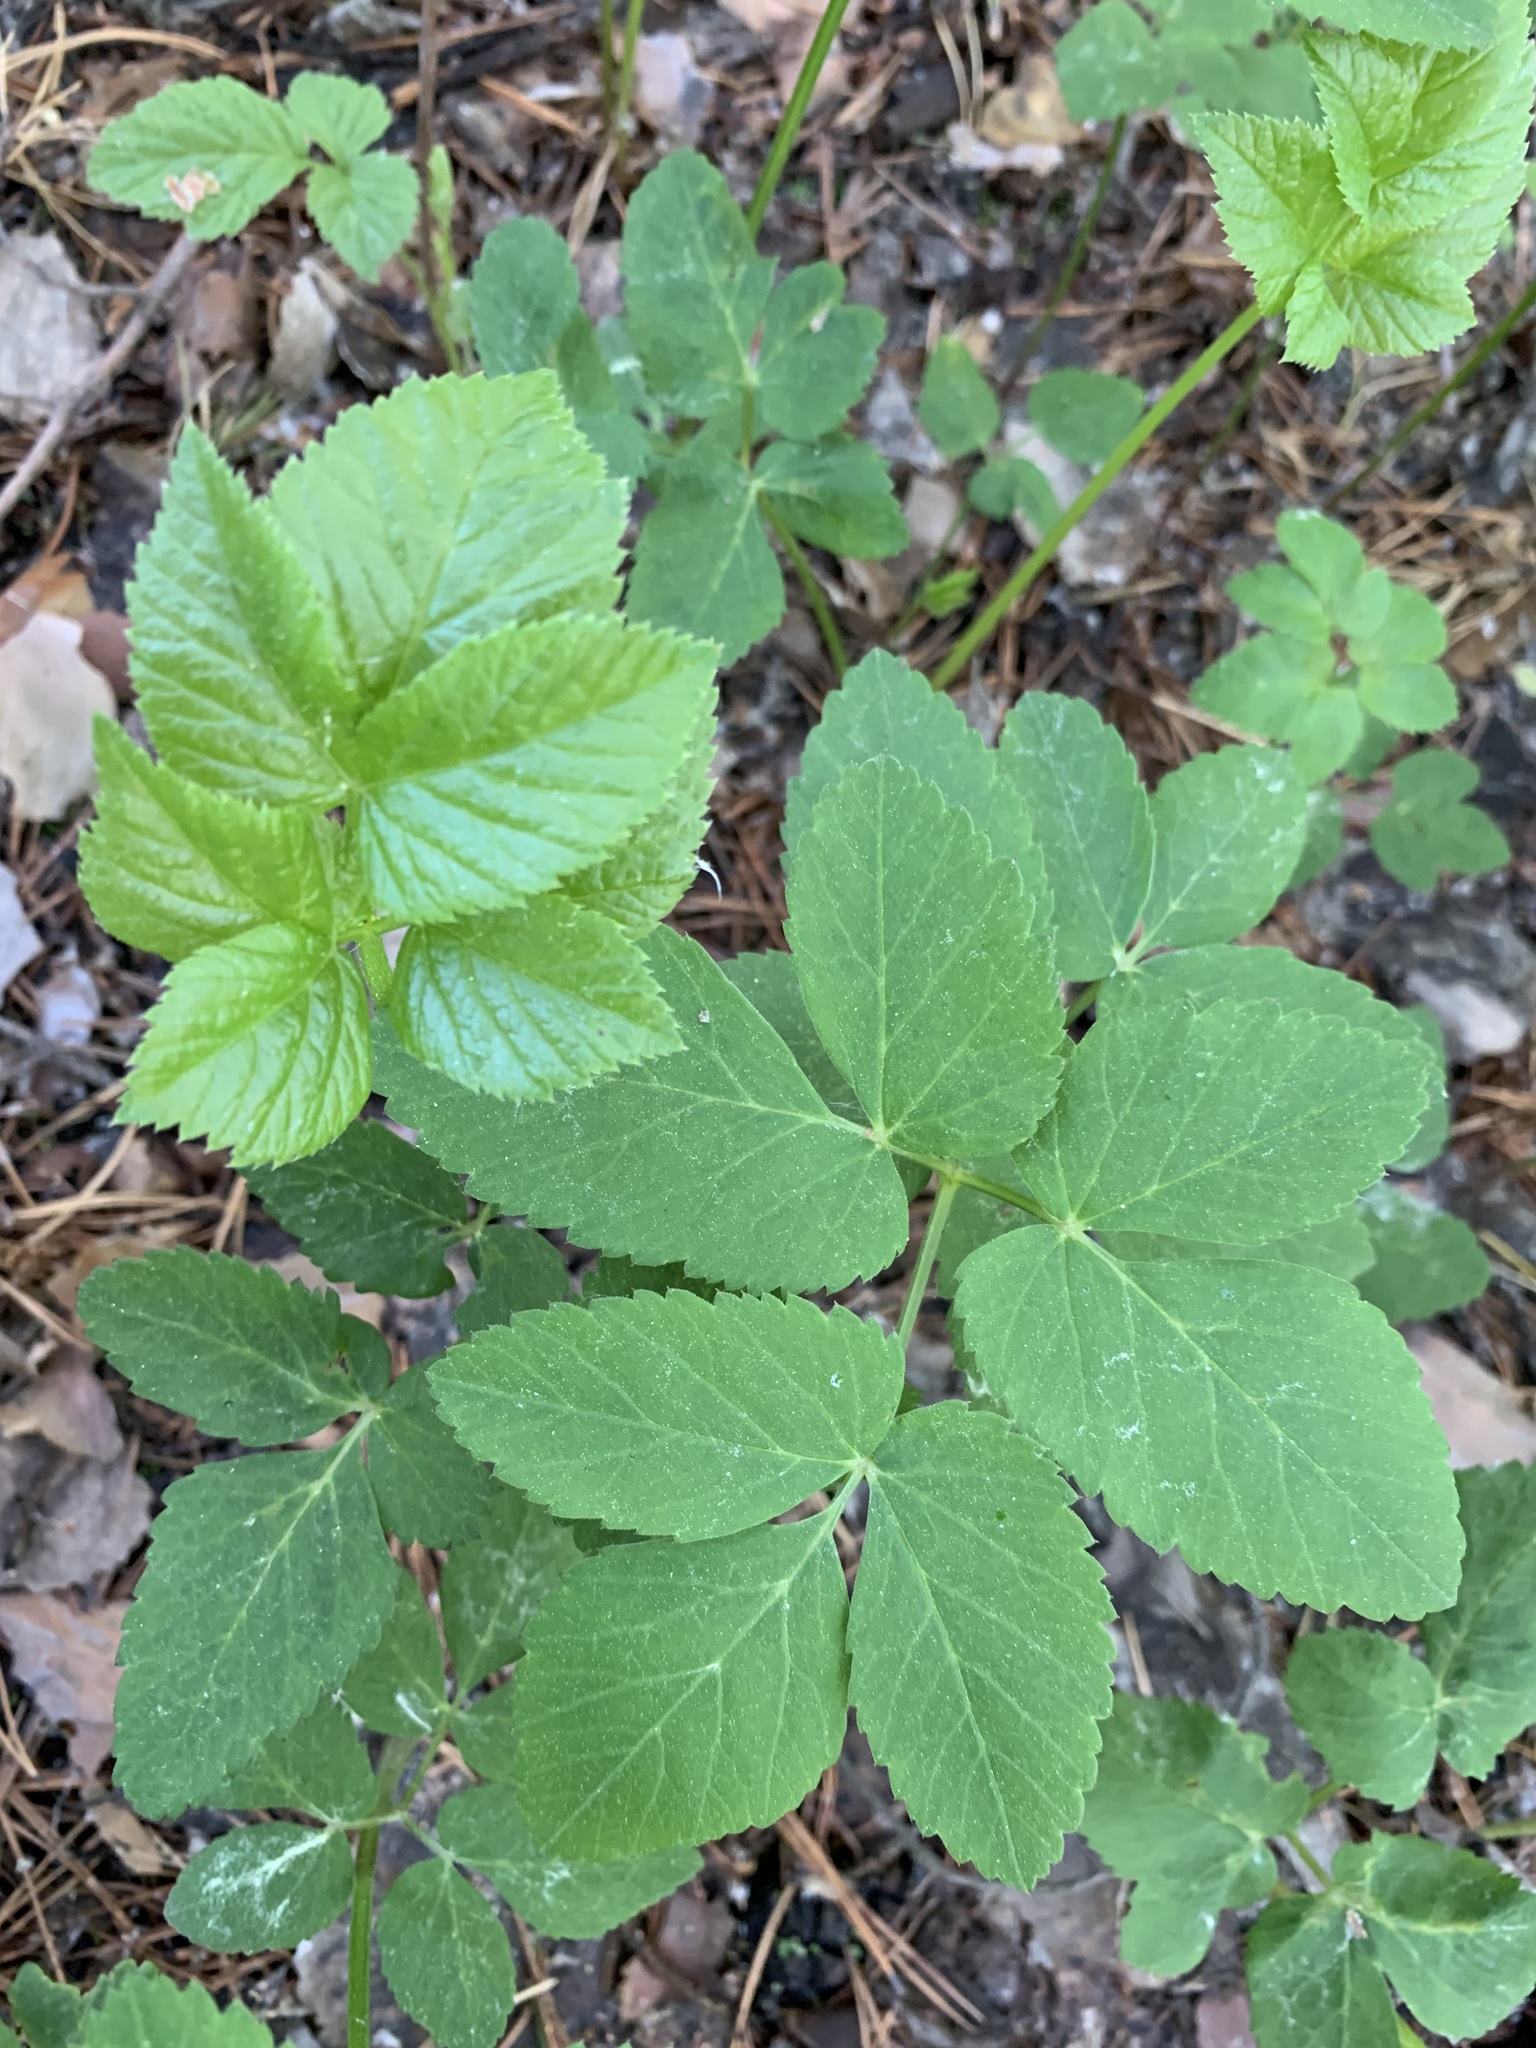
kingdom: Plantae
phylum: Tracheophyta
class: Magnoliopsida
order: Apiales
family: Apiaceae
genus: Aegopodium
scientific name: Aegopodium podagraria
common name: Ground-elder
